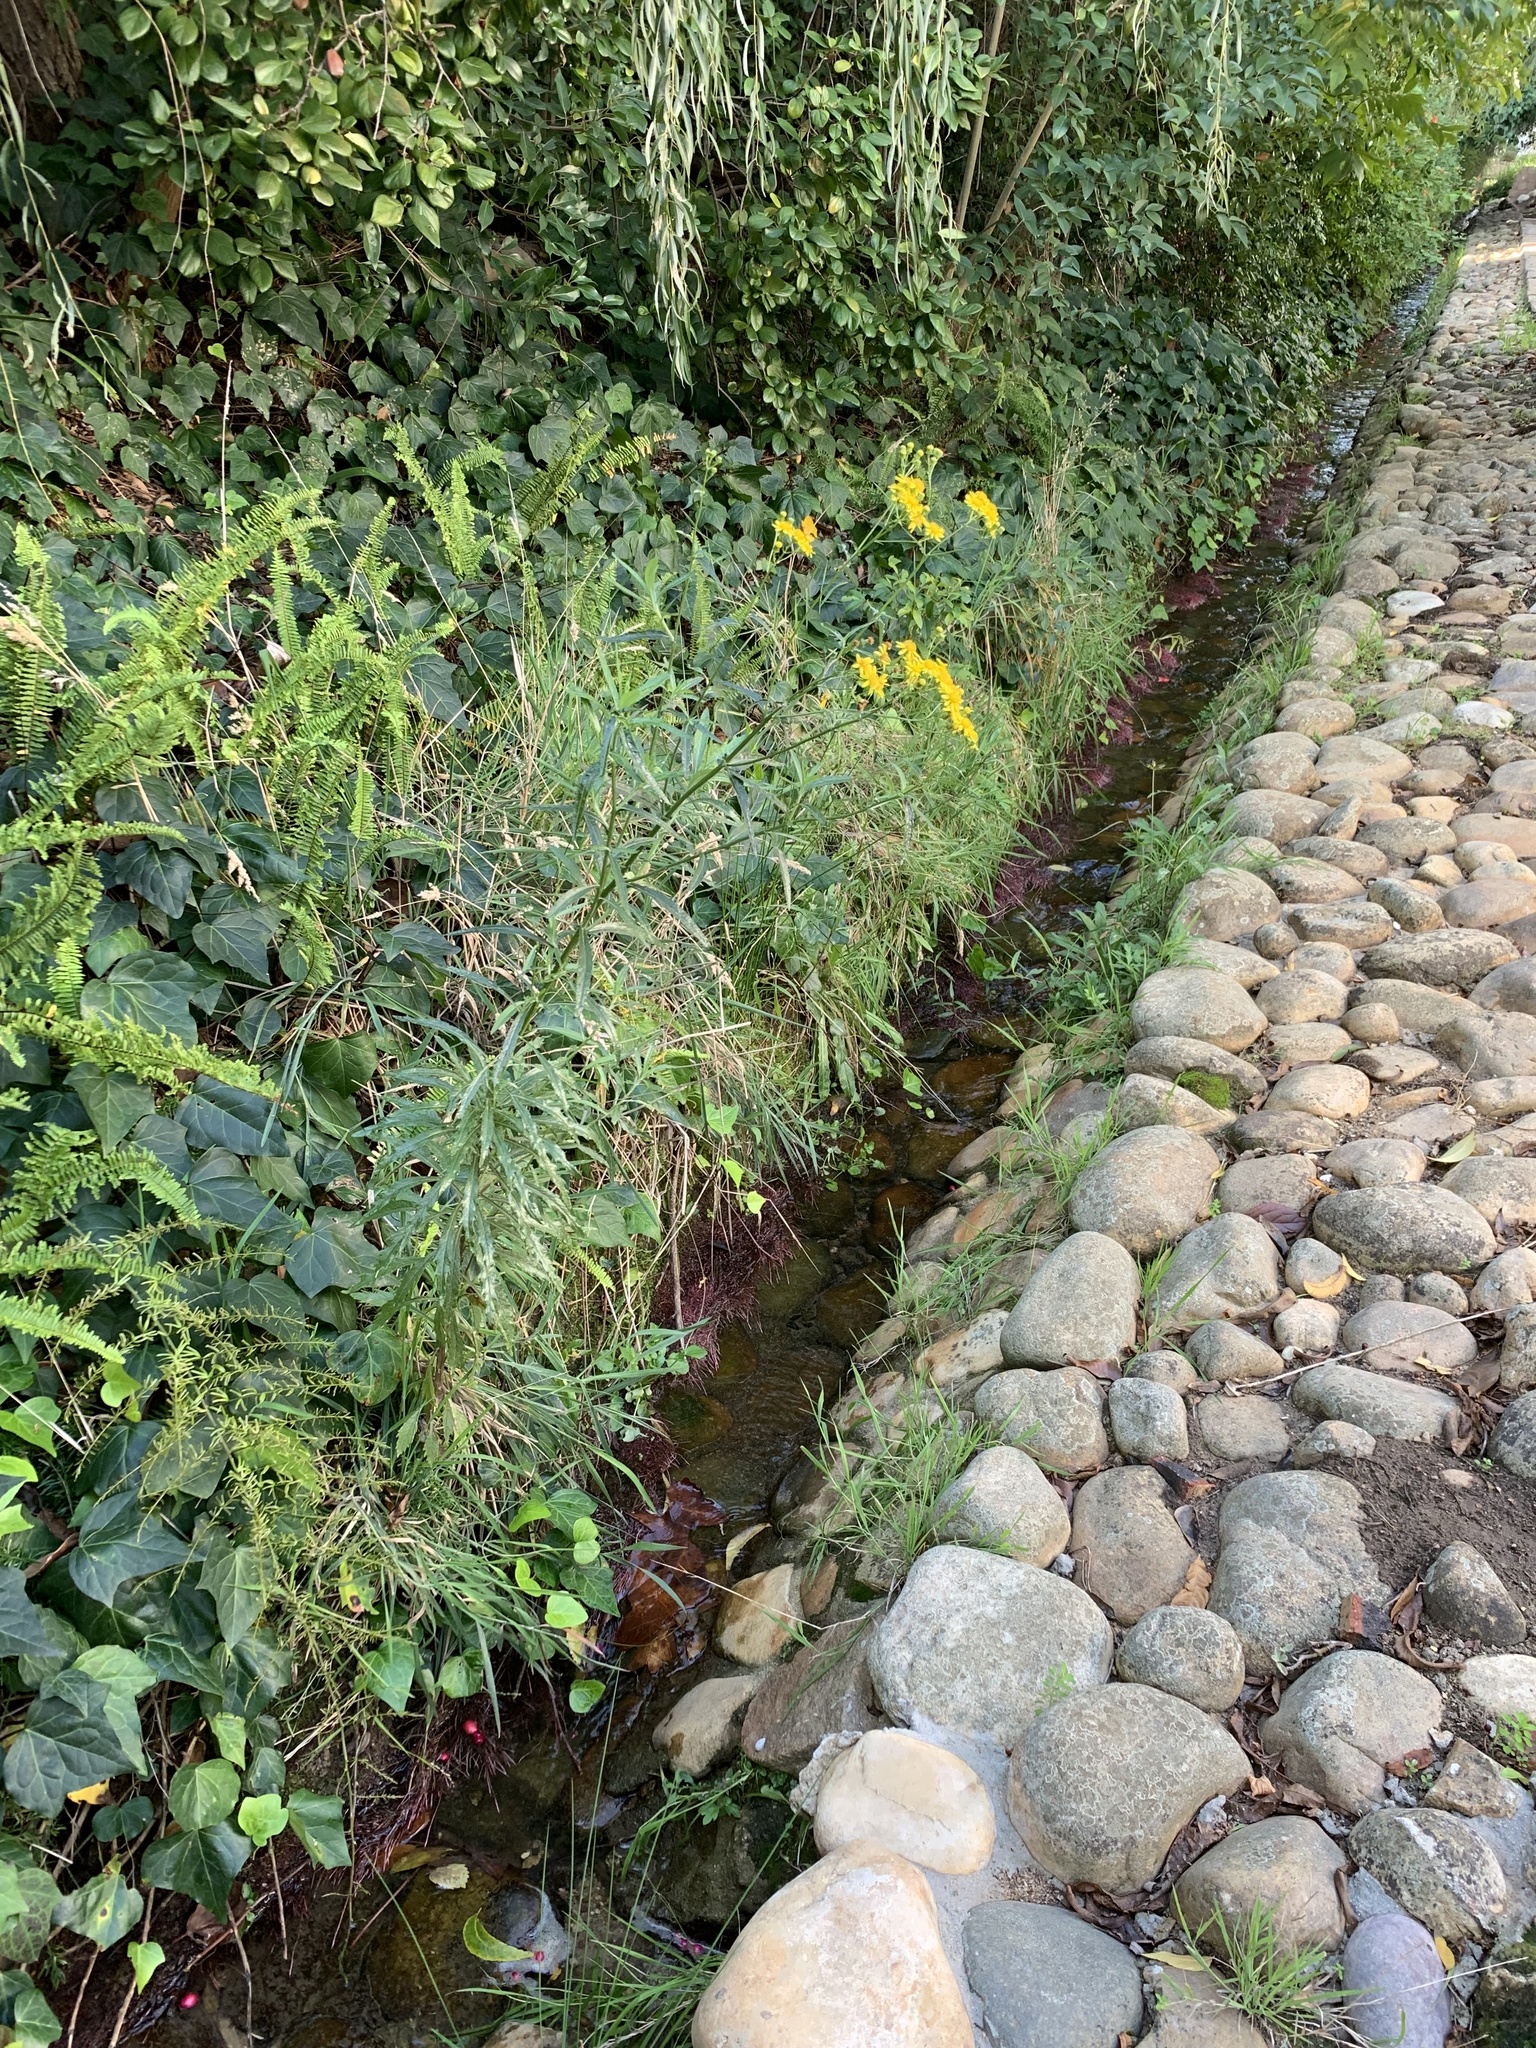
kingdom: Plantae
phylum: Tracheophyta
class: Magnoliopsida
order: Asterales
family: Asteraceae
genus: Senecio
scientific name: Senecio pterophorus
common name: Shoddy ragwort
